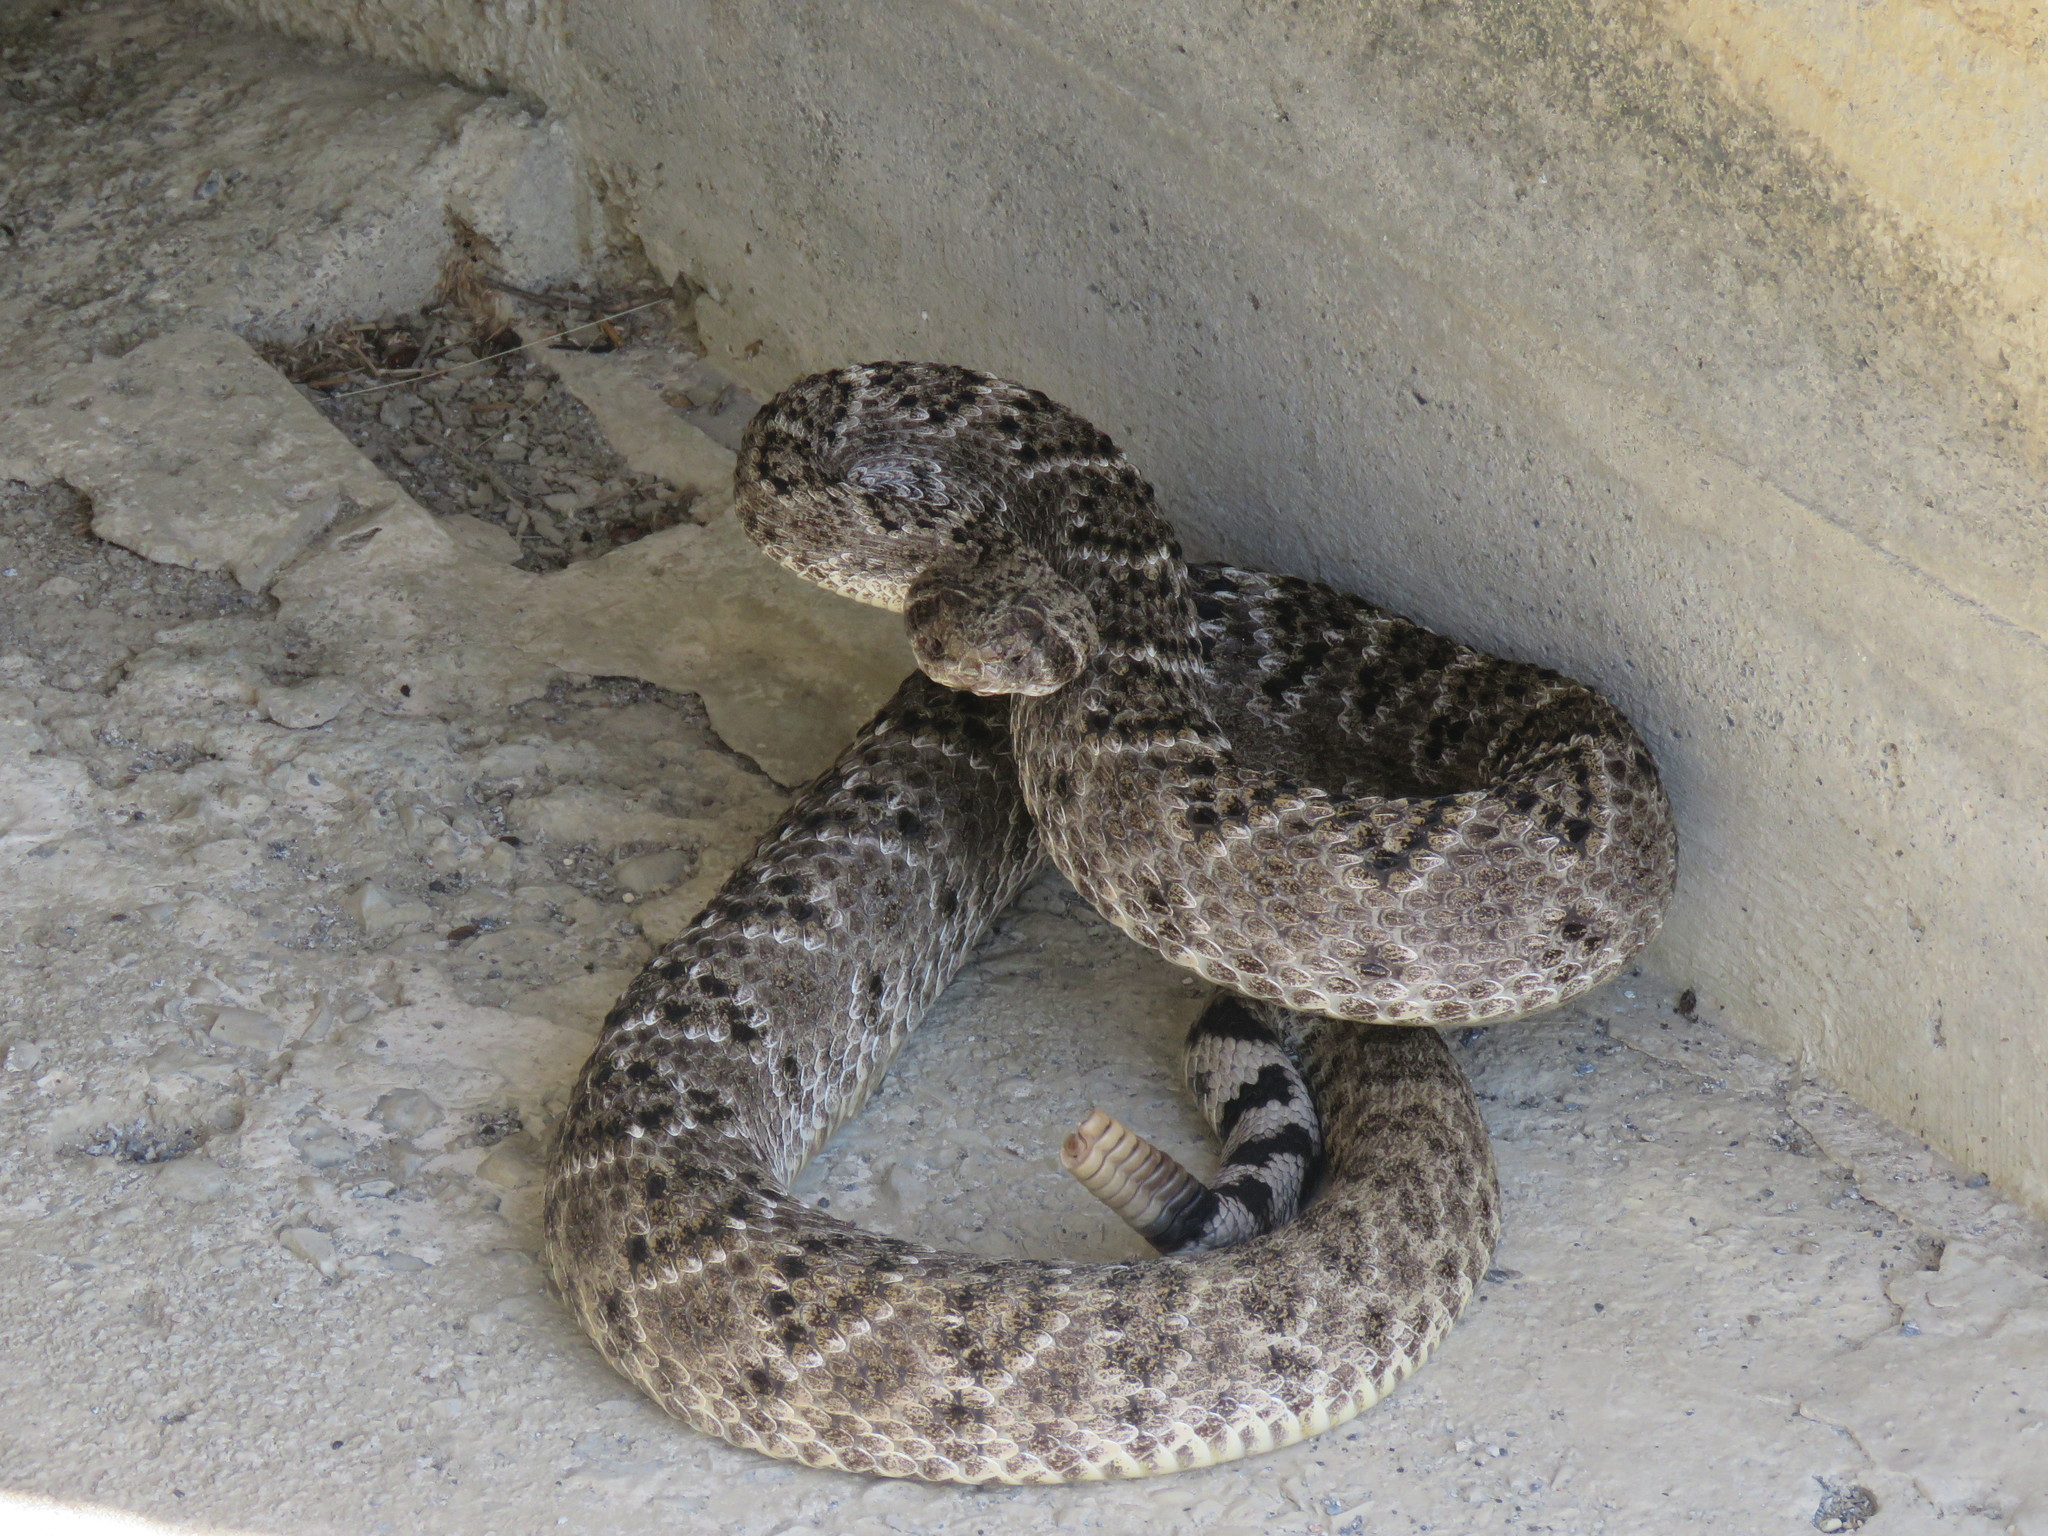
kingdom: Animalia
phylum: Chordata
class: Squamata
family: Viperidae
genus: Crotalus
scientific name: Crotalus atrox
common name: Western diamond-backed rattlesnake
